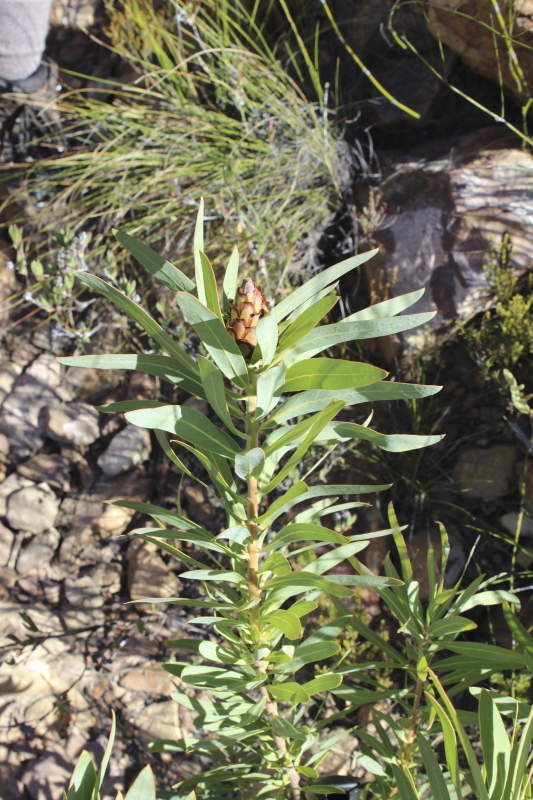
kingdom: Plantae
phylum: Tracheophyta
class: Magnoliopsida
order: Proteales
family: Proteaceae
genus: Protea
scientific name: Protea neriifolia
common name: Blue sugarbush
